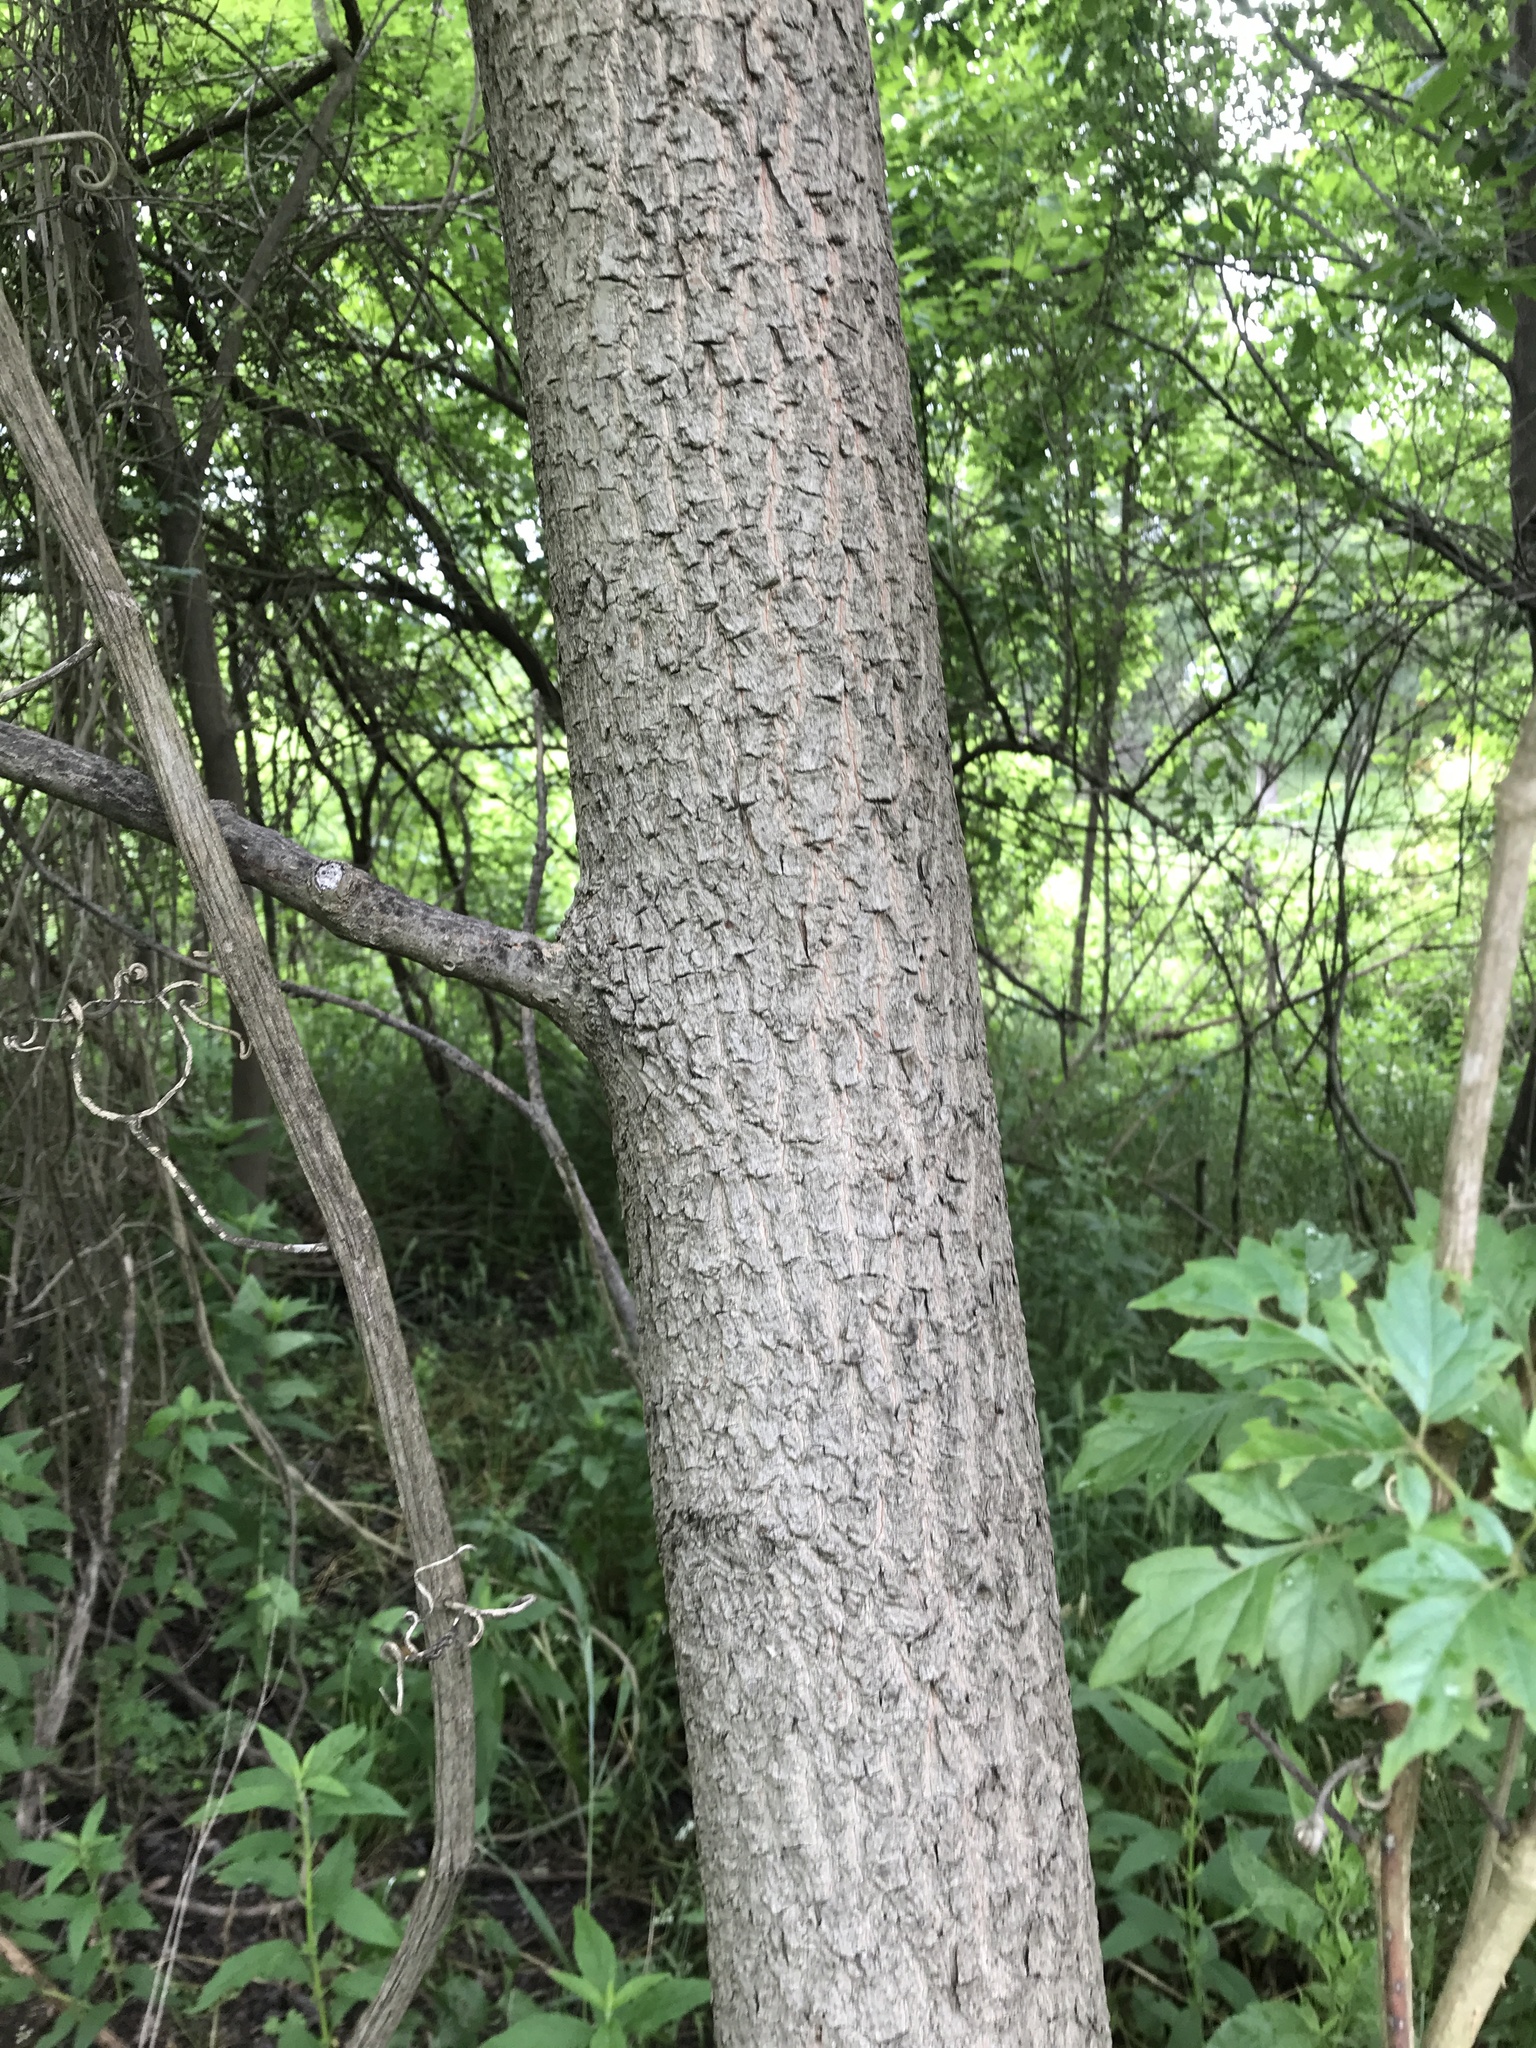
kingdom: Plantae
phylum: Tracheophyta
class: Magnoliopsida
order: Ericales
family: Ebenaceae
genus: Diospyros
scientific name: Diospyros virginiana
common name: Persimmon
